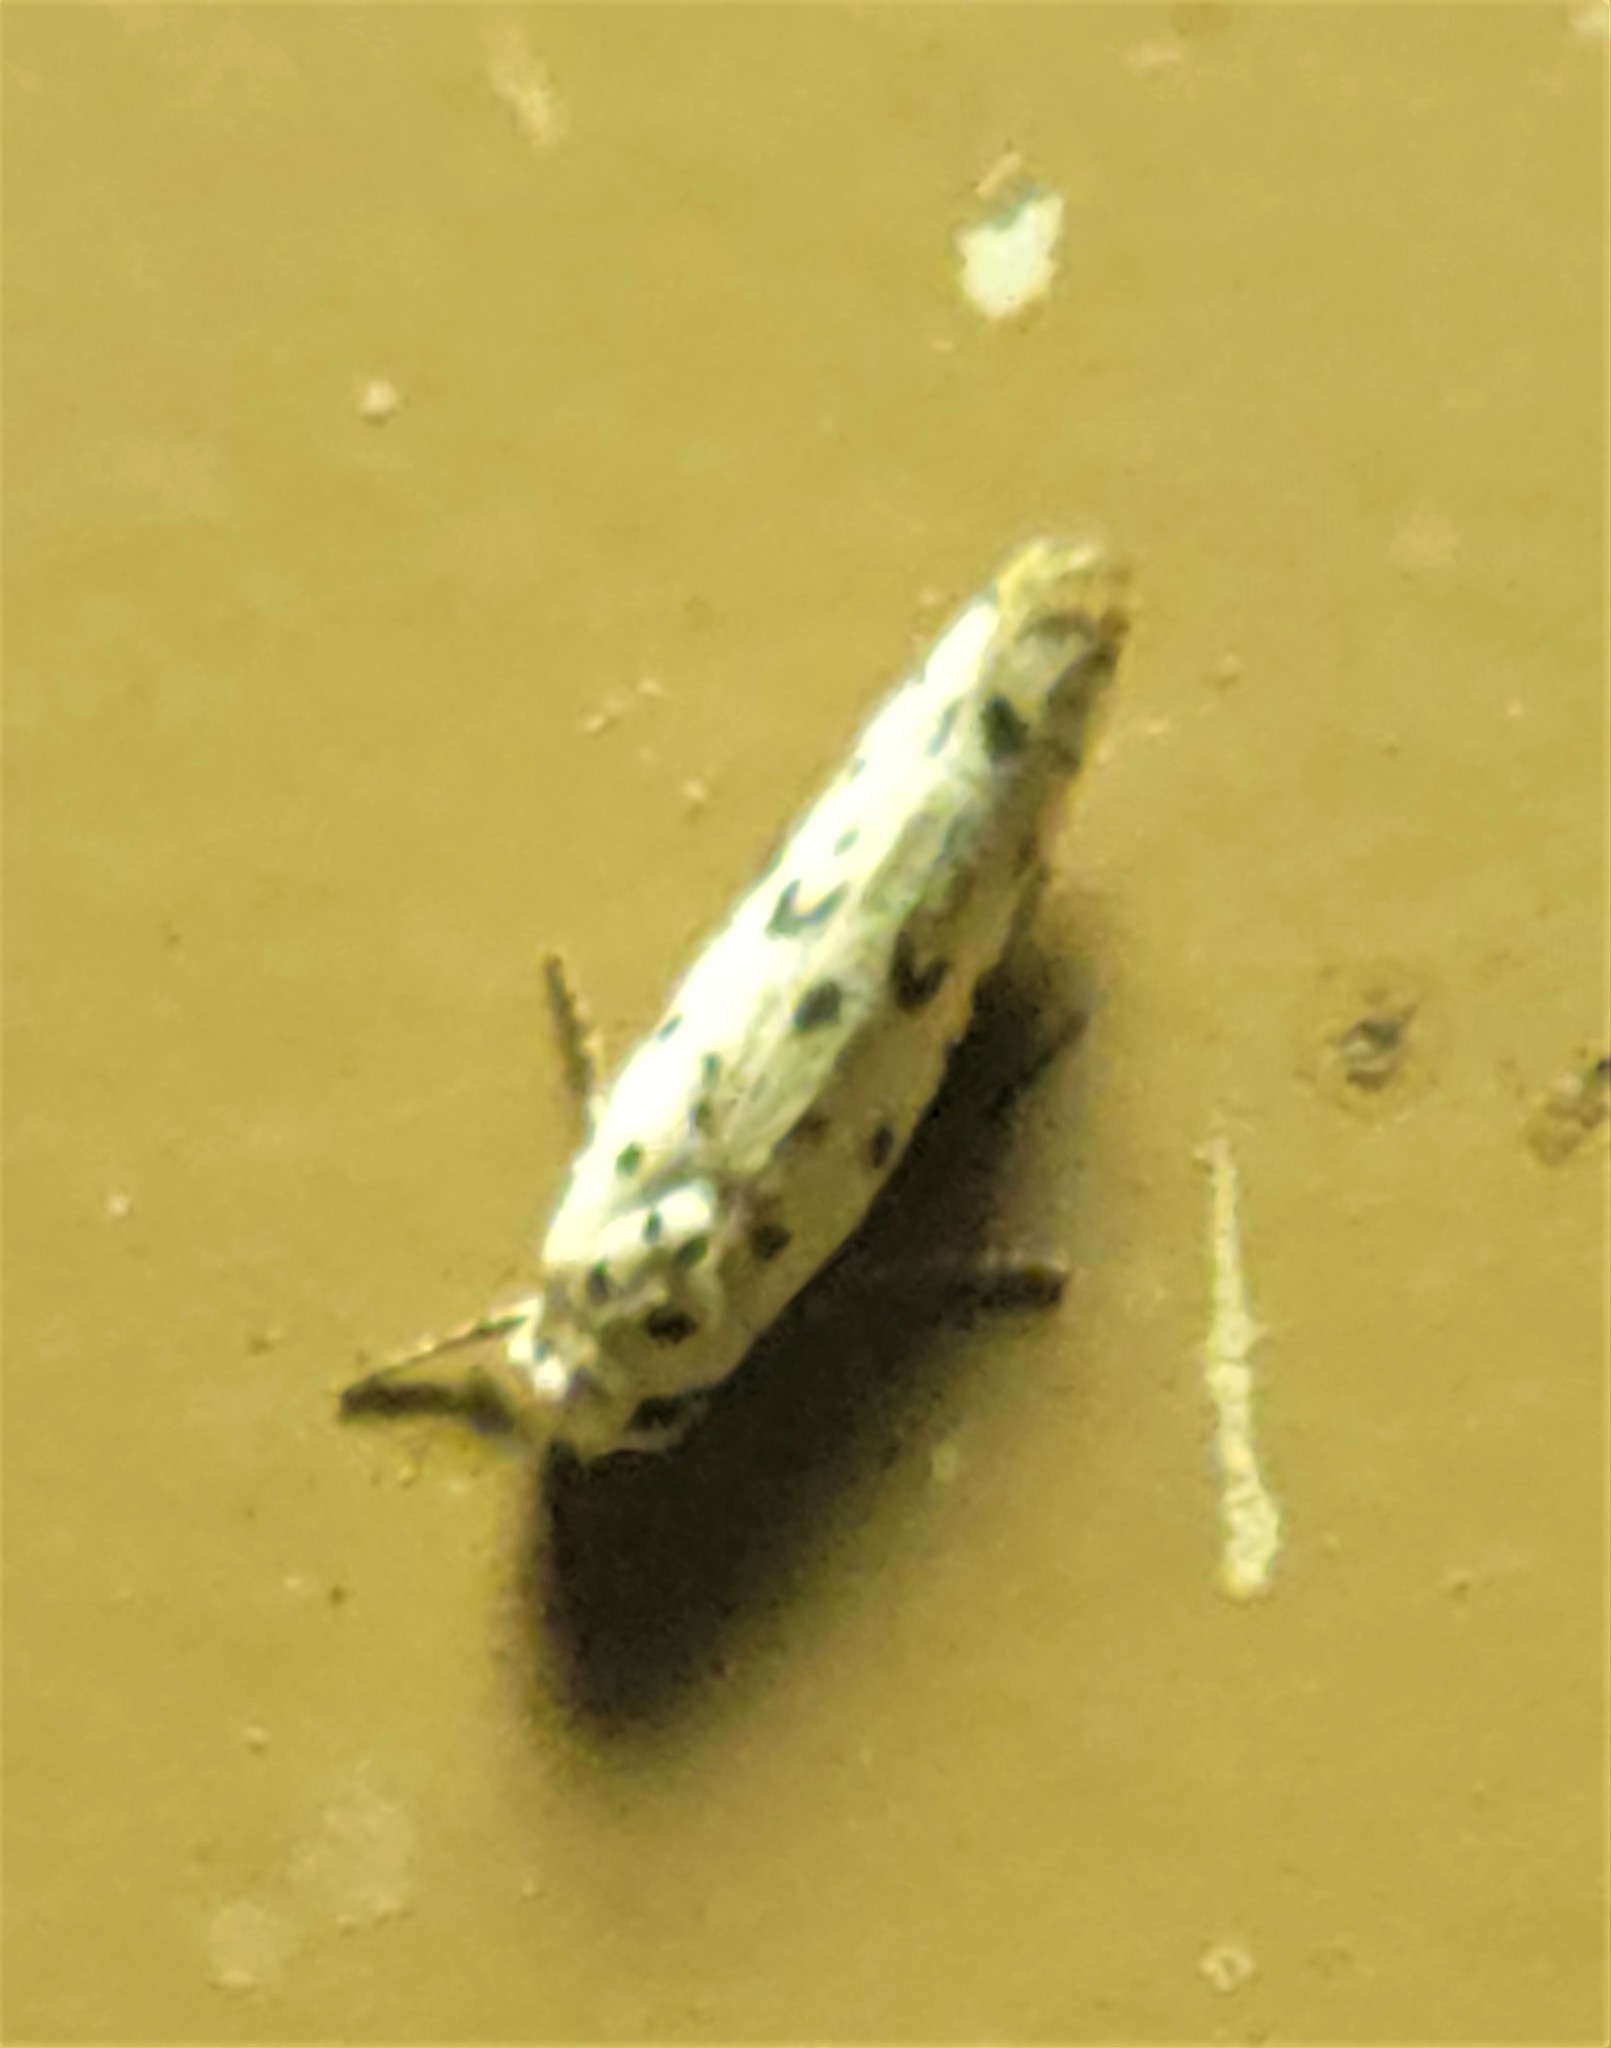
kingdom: Animalia
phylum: Arthropoda
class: Insecta
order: Lepidoptera
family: Ethmiidae
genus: Ethmia
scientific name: Ethmia bittenella
